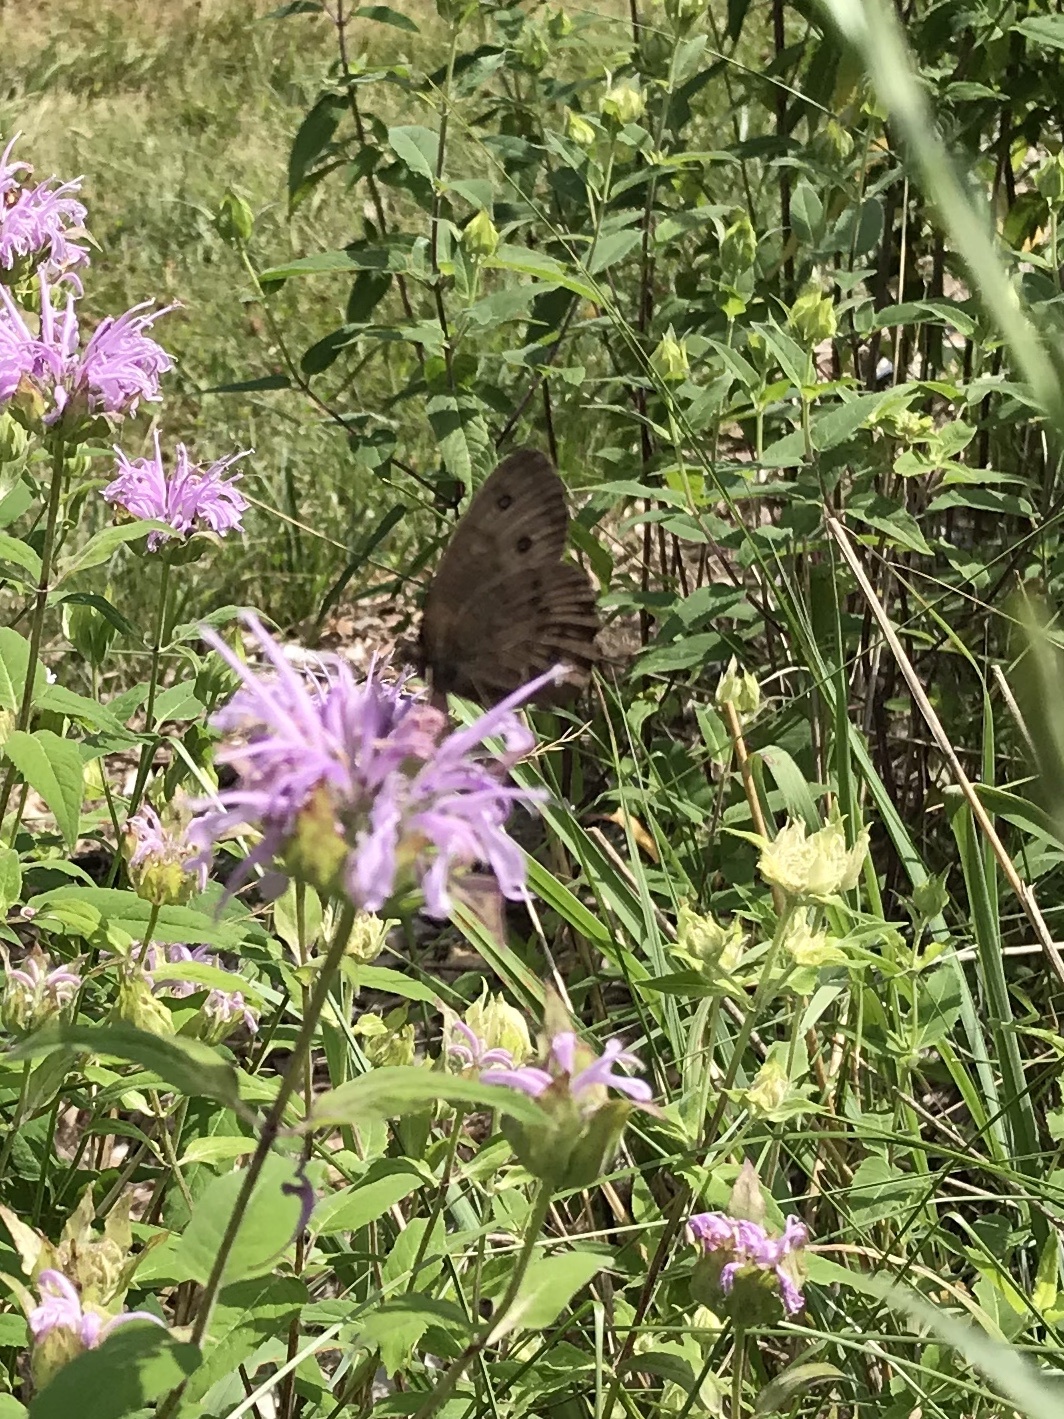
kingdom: Animalia
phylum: Arthropoda
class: Insecta
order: Lepidoptera
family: Nymphalidae
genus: Cercyonis
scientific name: Cercyonis pegala
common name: Common wood-nymph
